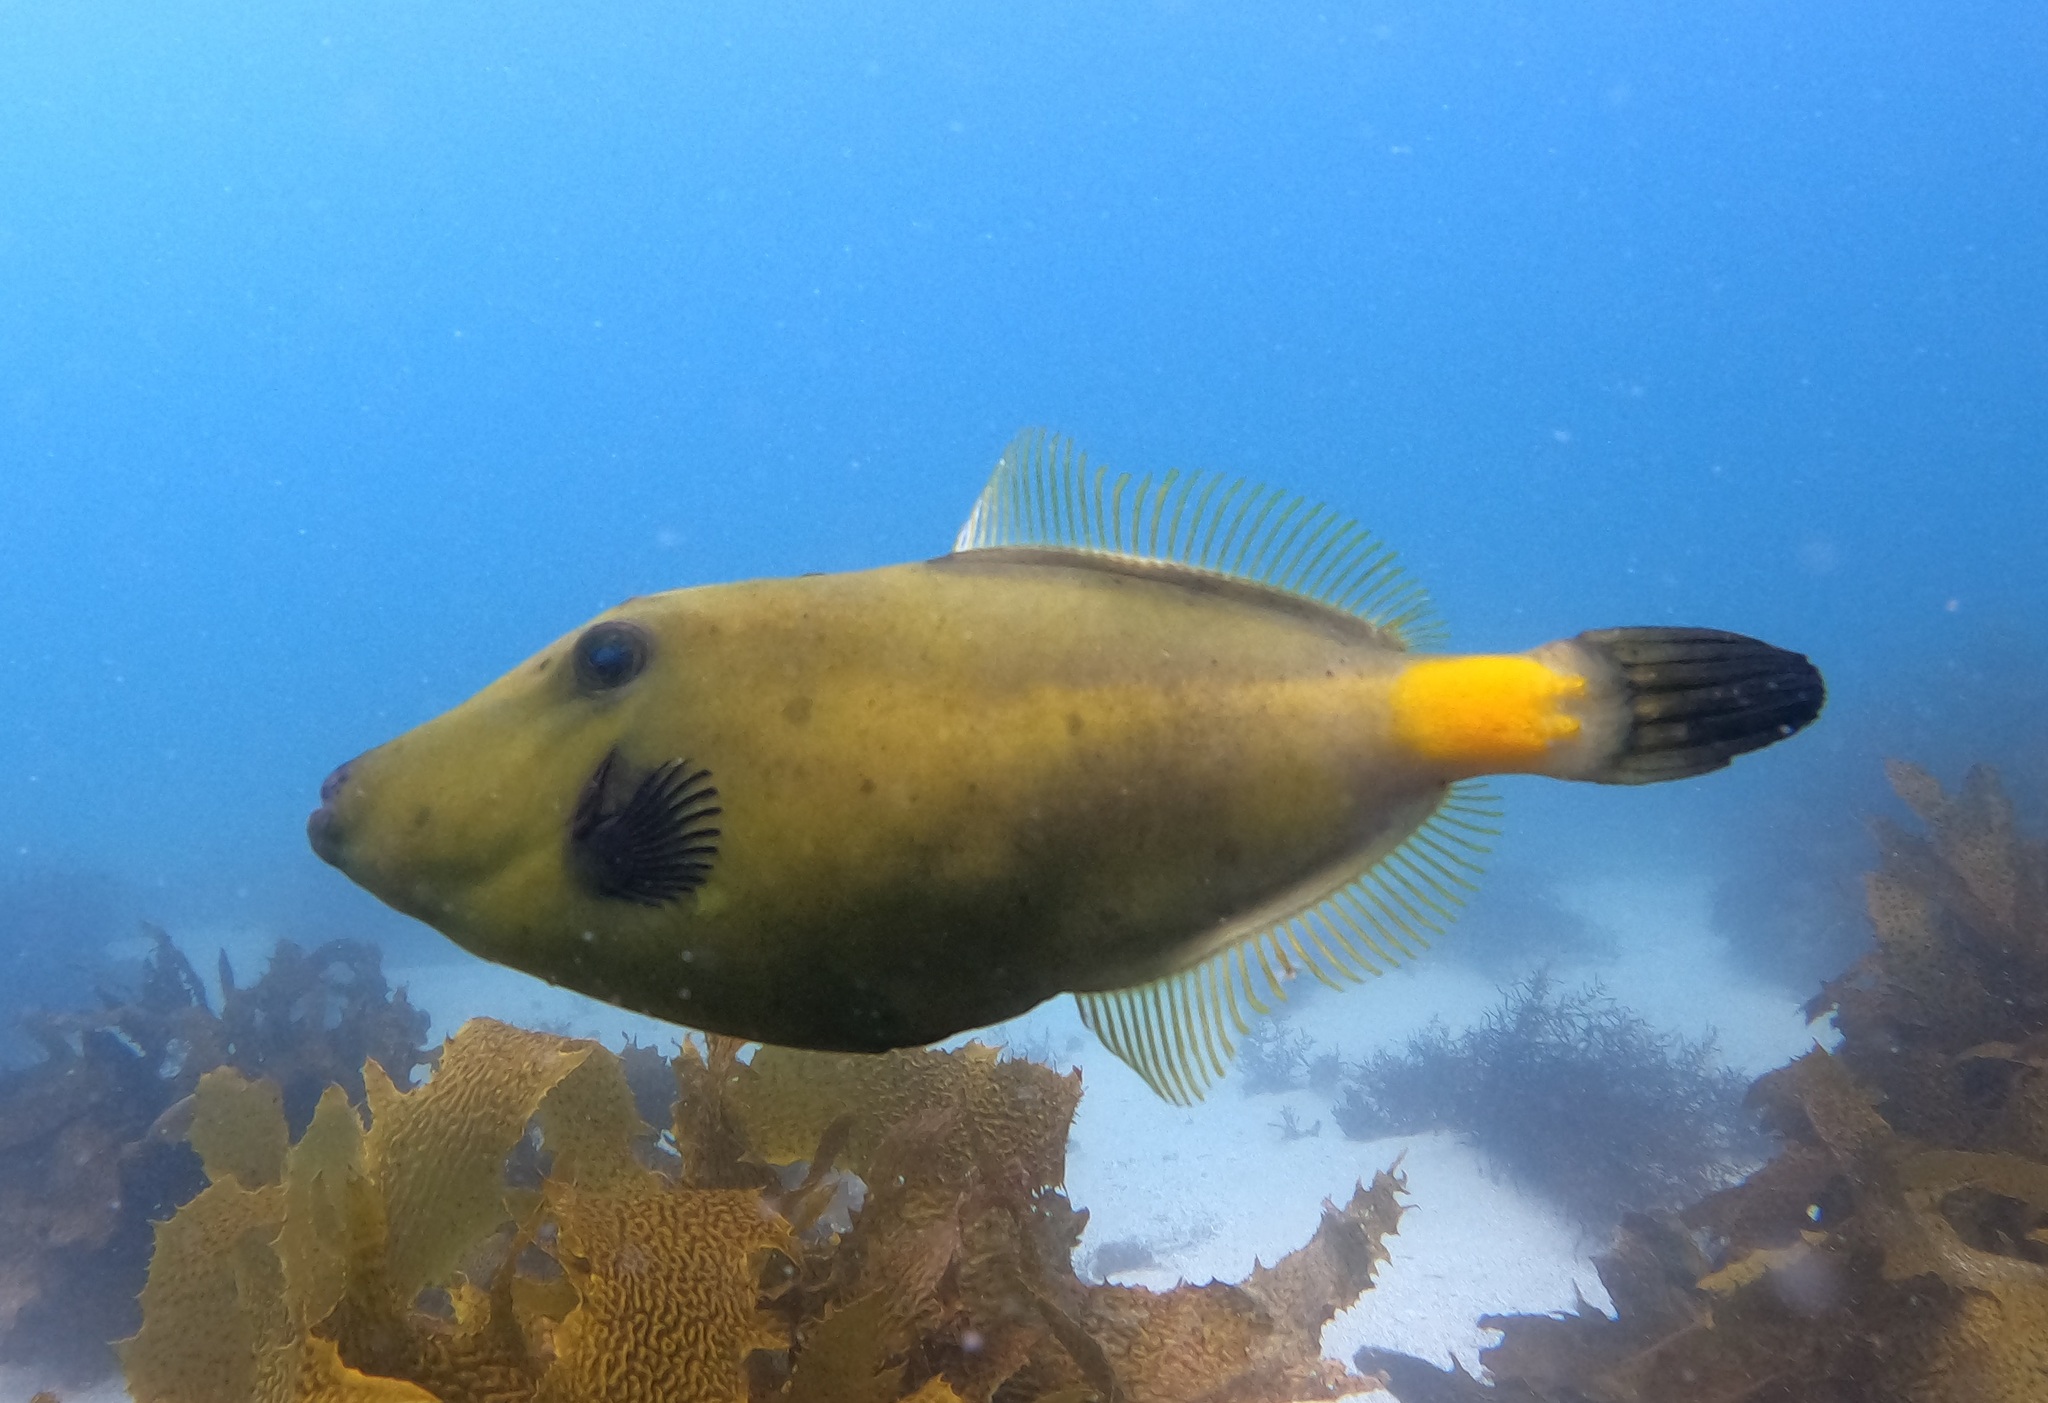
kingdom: Animalia
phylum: Chordata
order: Tetraodontiformes
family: Monacanthidae
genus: Meuschenia
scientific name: Meuschenia flavolineata
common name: Yellowstriped leatherjacket
